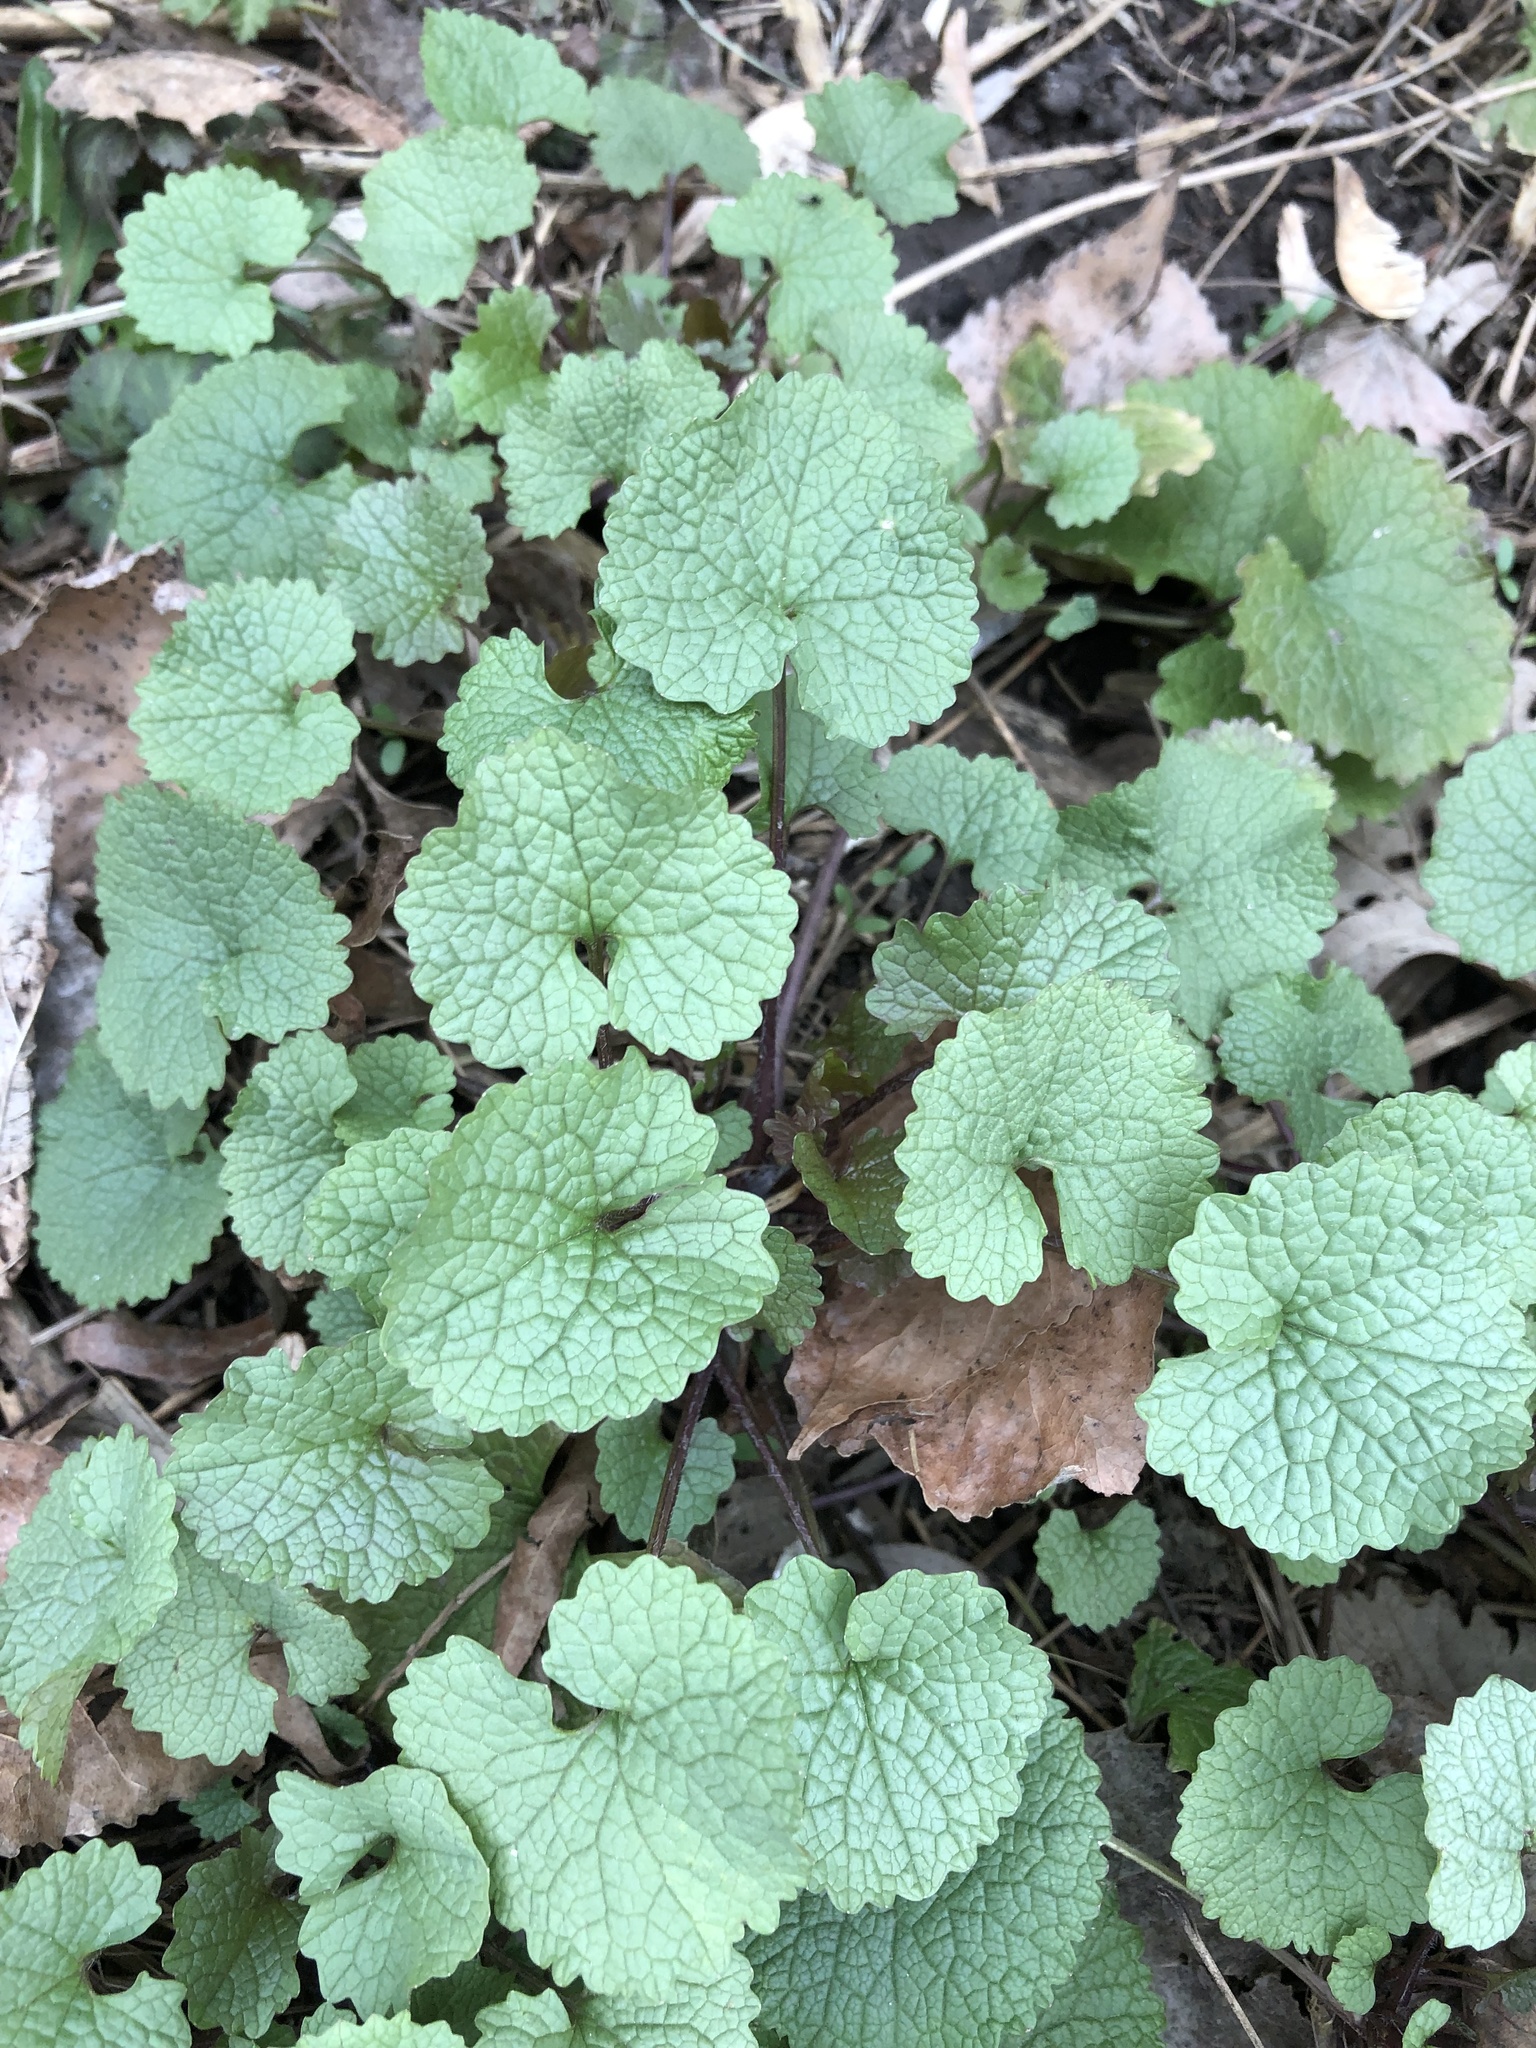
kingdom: Plantae
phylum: Tracheophyta
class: Magnoliopsida
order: Brassicales
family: Brassicaceae
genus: Alliaria
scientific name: Alliaria petiolata
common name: Garlic mustard
